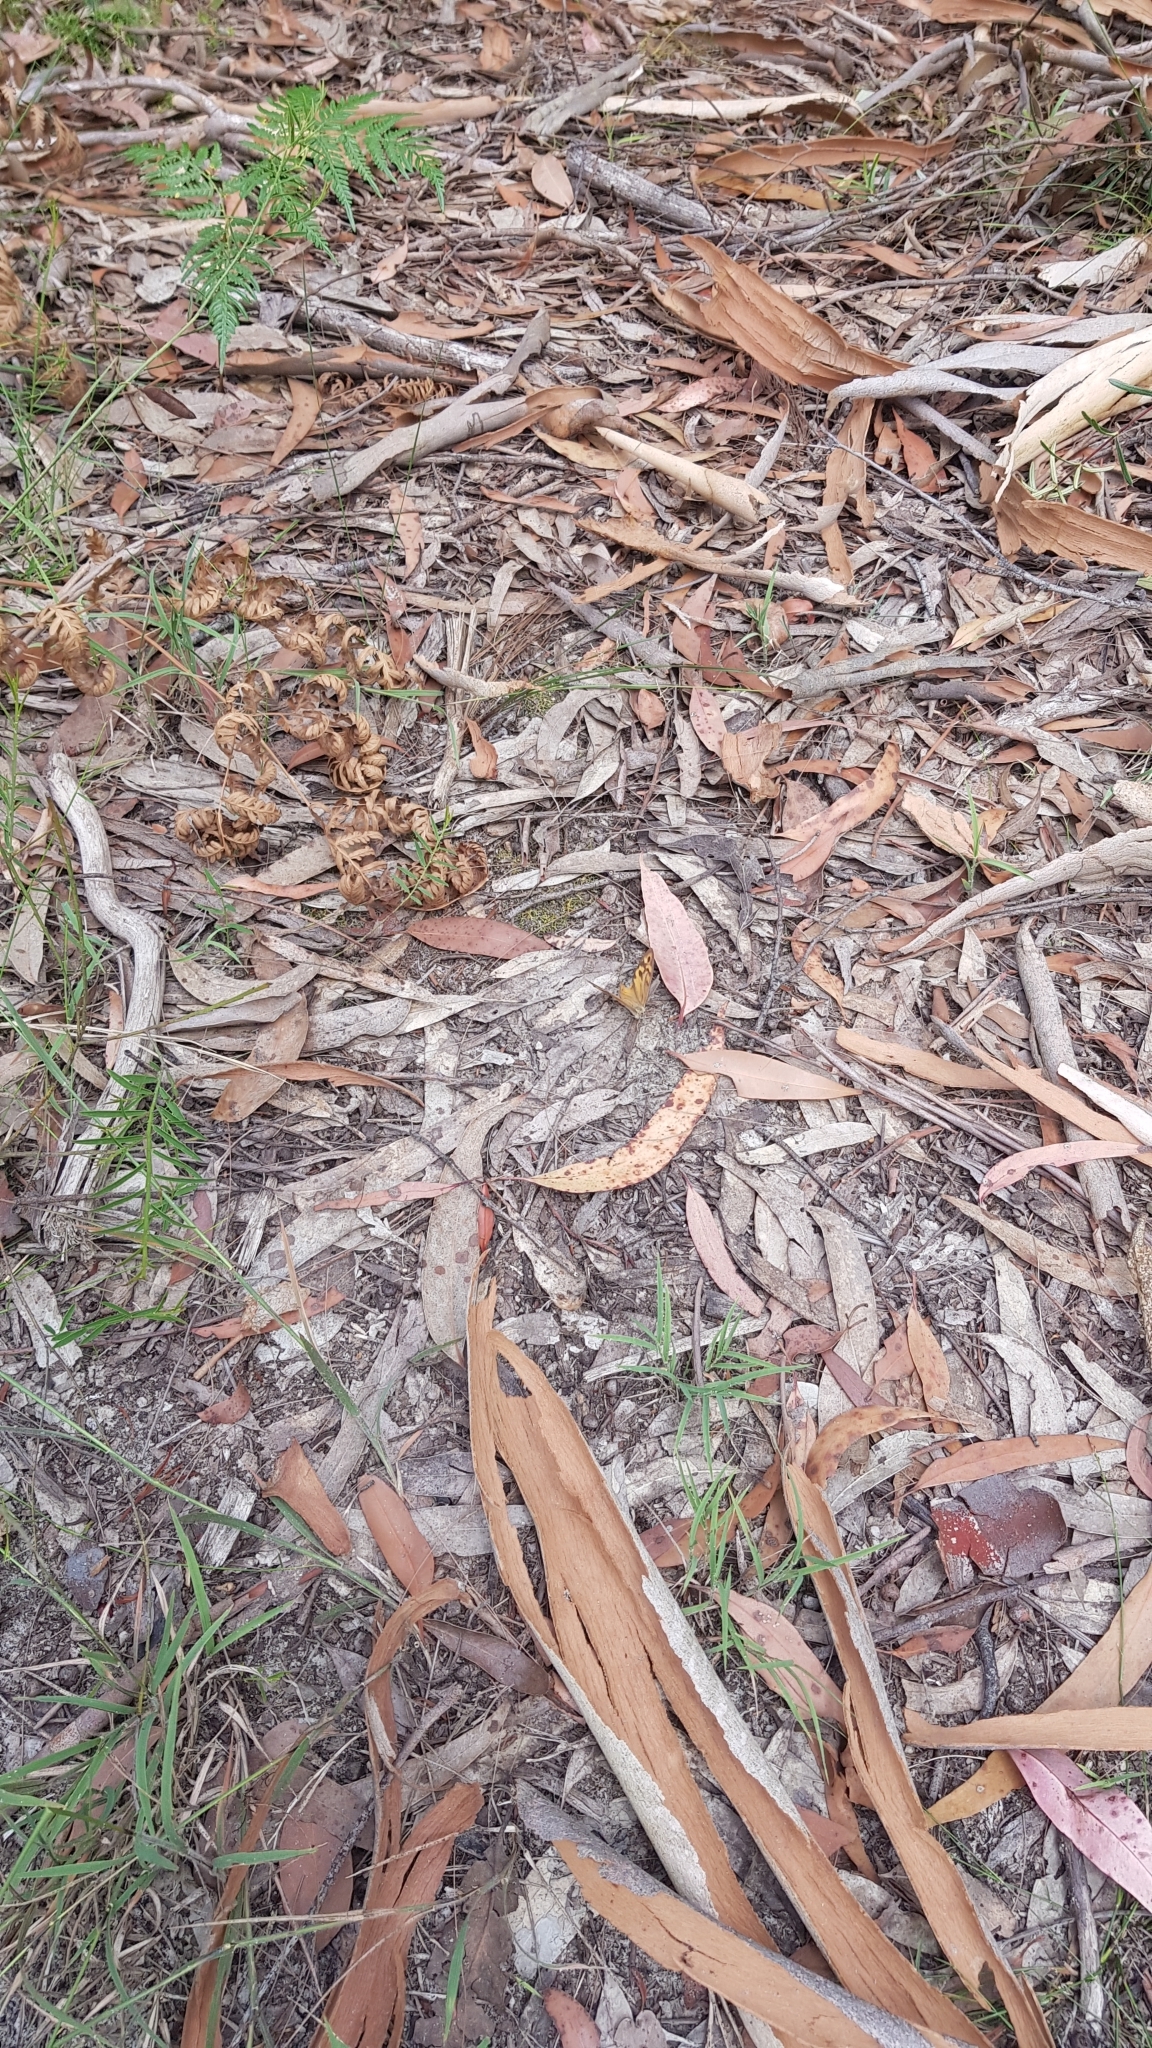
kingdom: Animalia
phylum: Arthropoda
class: Insecta
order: Lepidoptera
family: Nymphalidae
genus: Heteronympha
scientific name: Heteronympha merope
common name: Common brown
